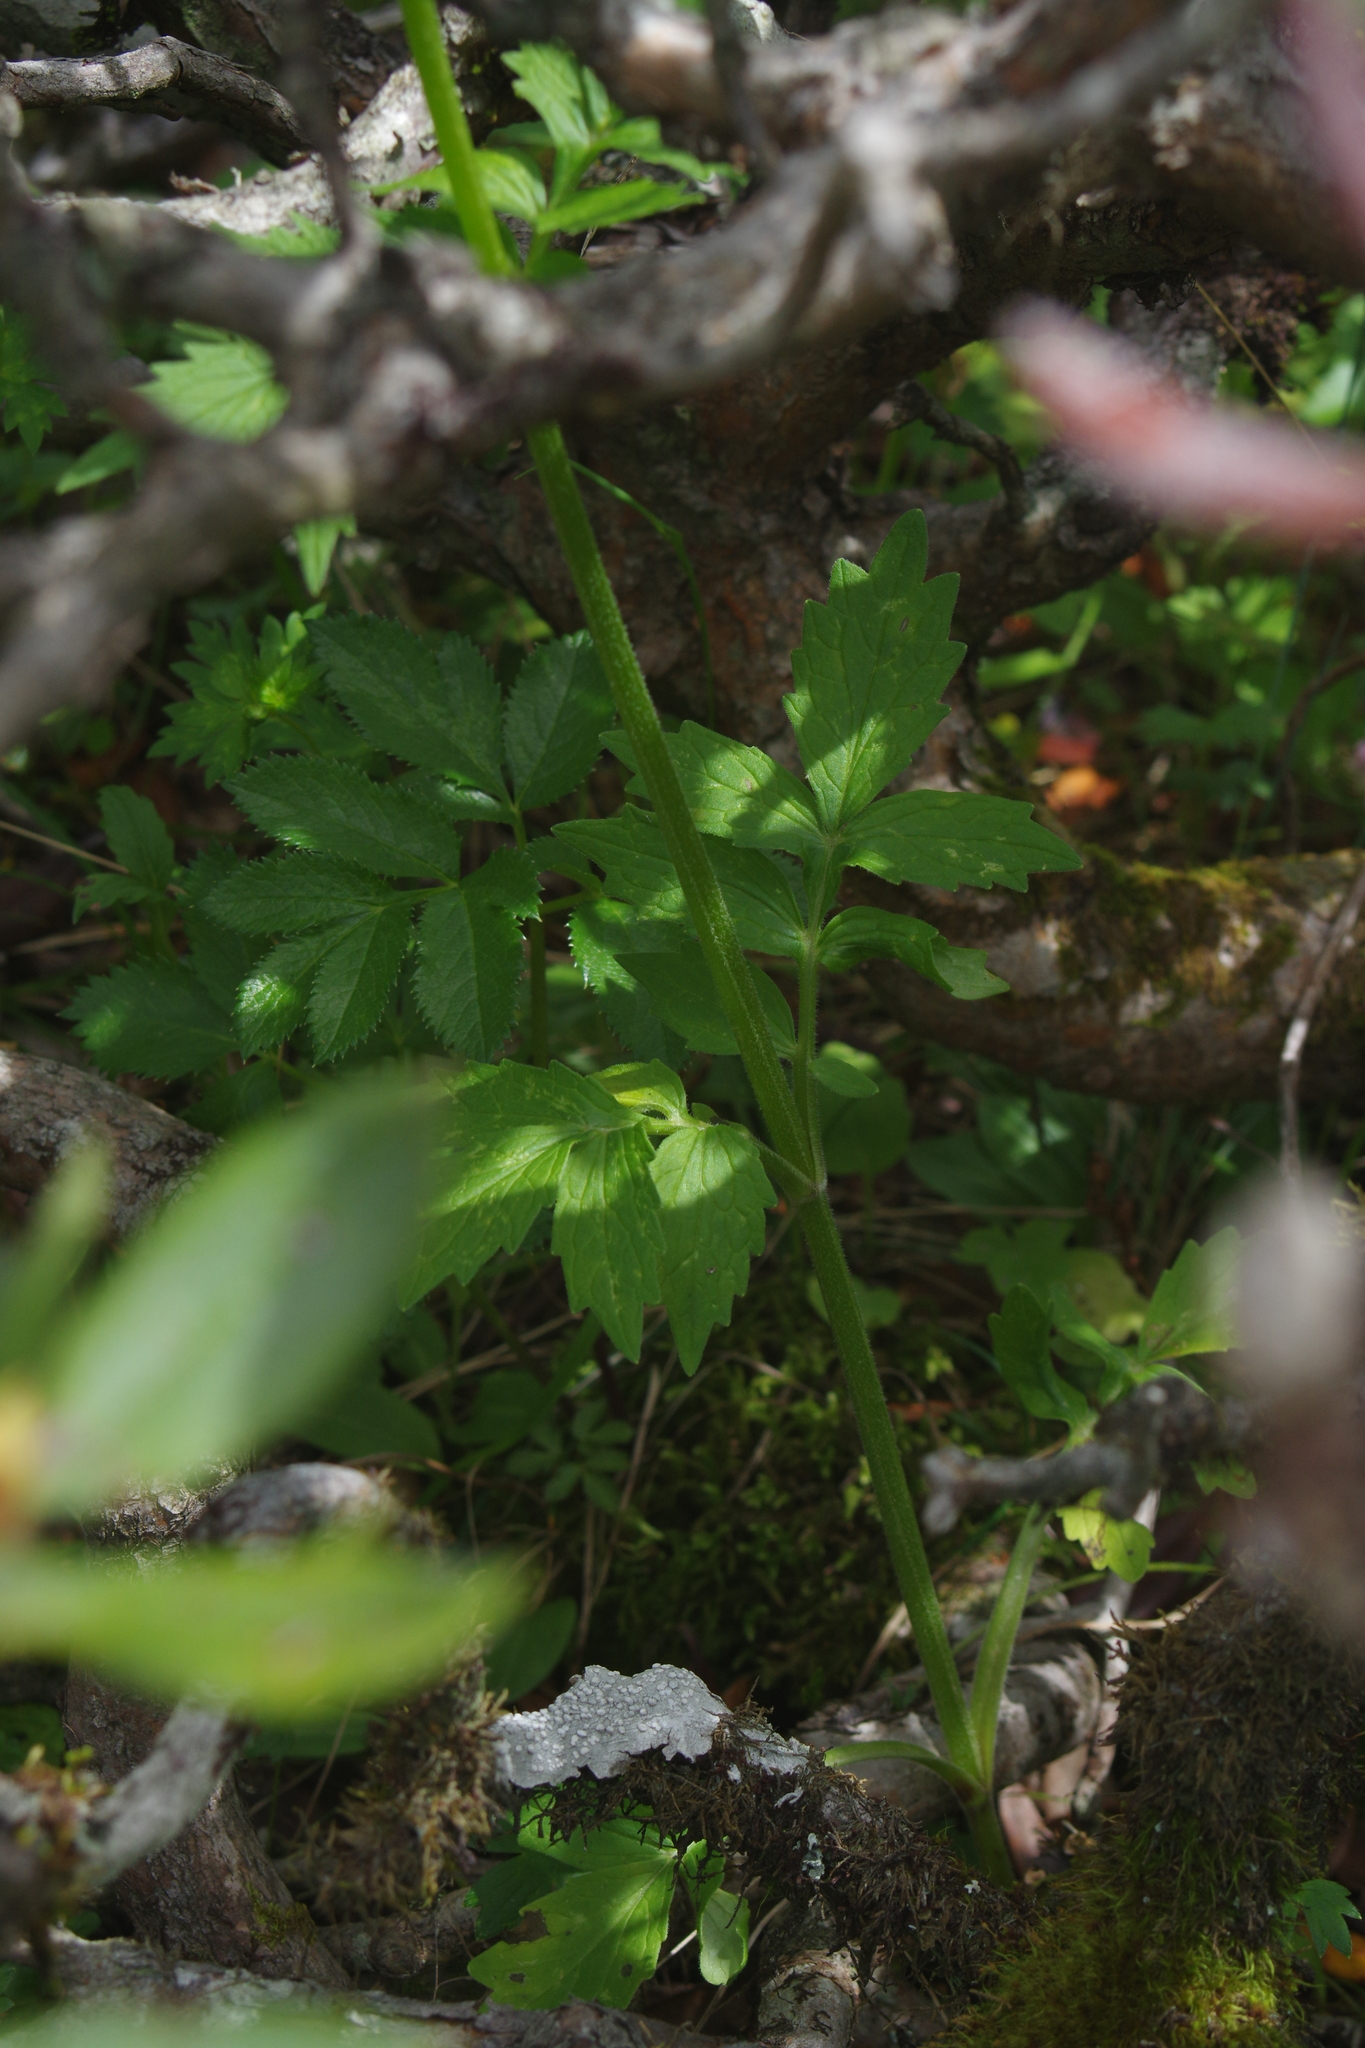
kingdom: Plantae
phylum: Tracheophyta
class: Magnoliopsida
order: Dipsacales
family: Caprifoliaceae
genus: Valeriana
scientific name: Valeriana officinalis
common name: Common valerian
